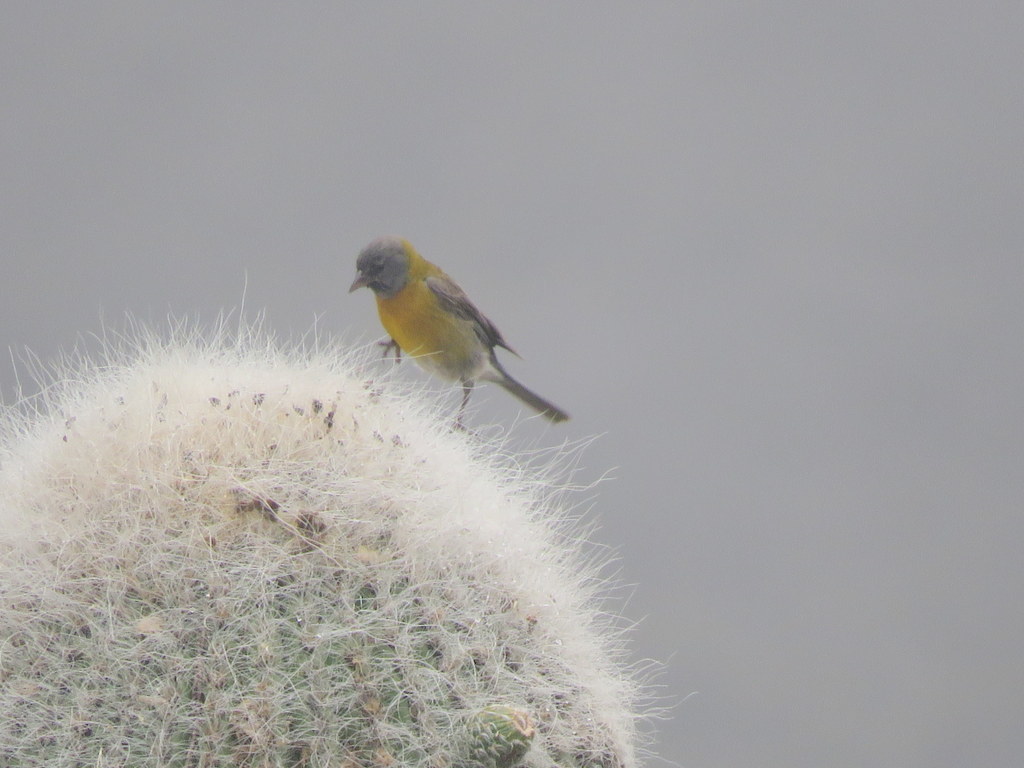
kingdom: Animalia
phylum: Chordata
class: Aves
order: Passeriformes
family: Thraupidae
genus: Phrygilus
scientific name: Phrygilus gayi
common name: Grey-hooded sierra finch
